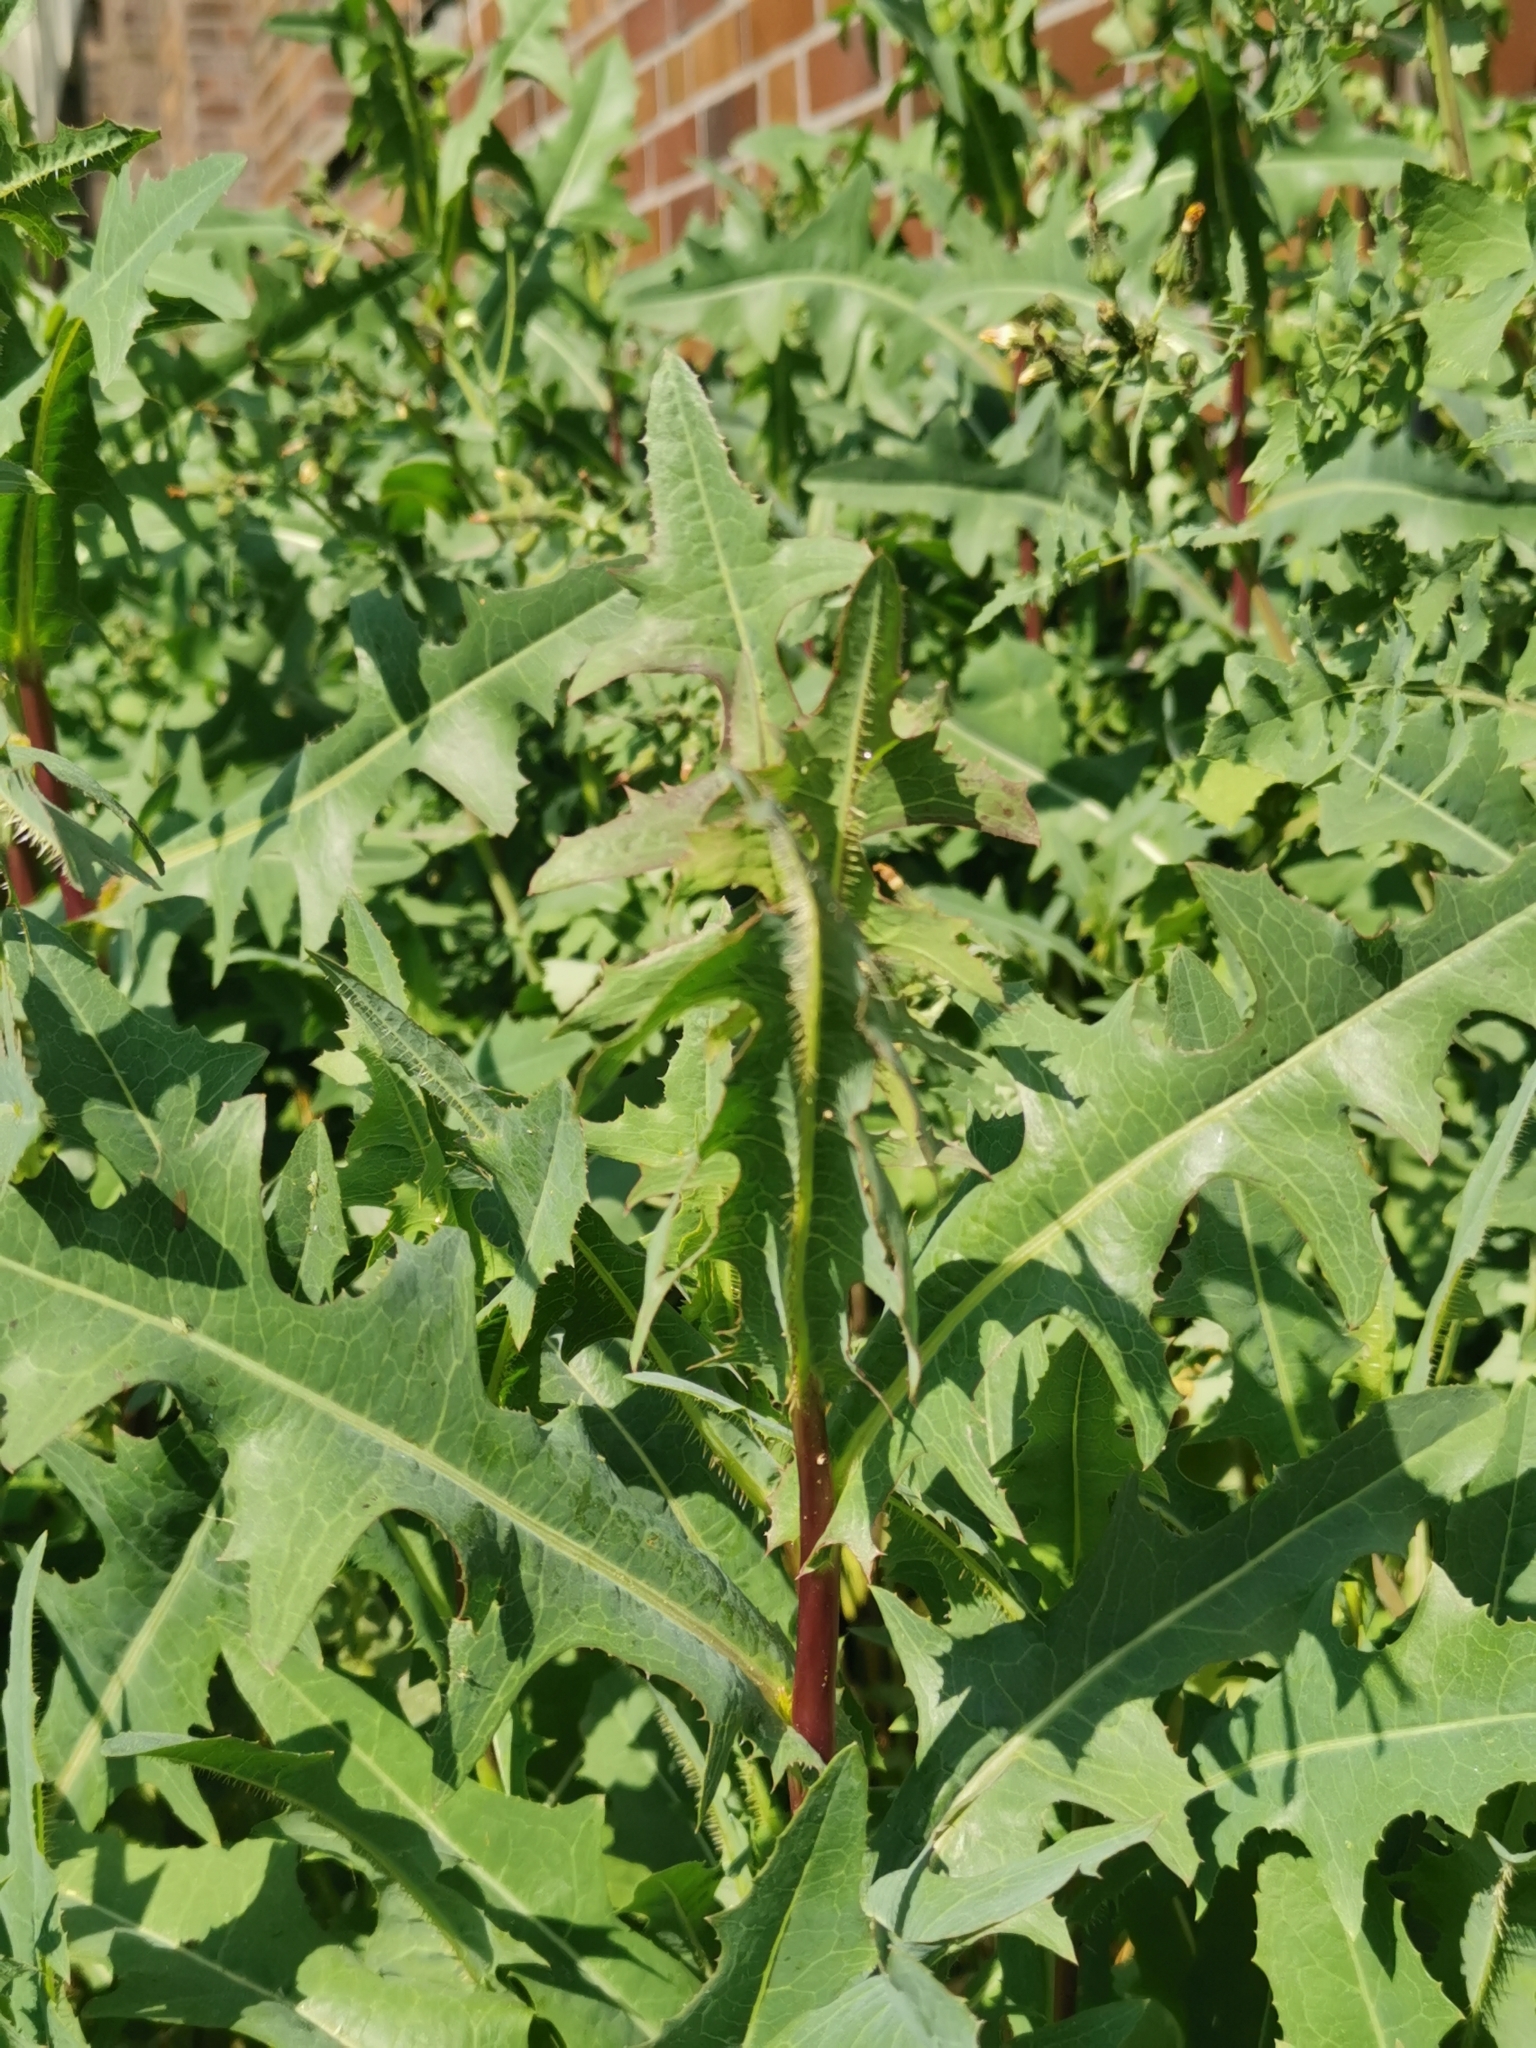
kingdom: Plantae
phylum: Tracheophyta
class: Magnoliopsida
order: Asterales
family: Asteraceae
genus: Lactuca
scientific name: Lactuca serriola
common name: Prickly lettuce
